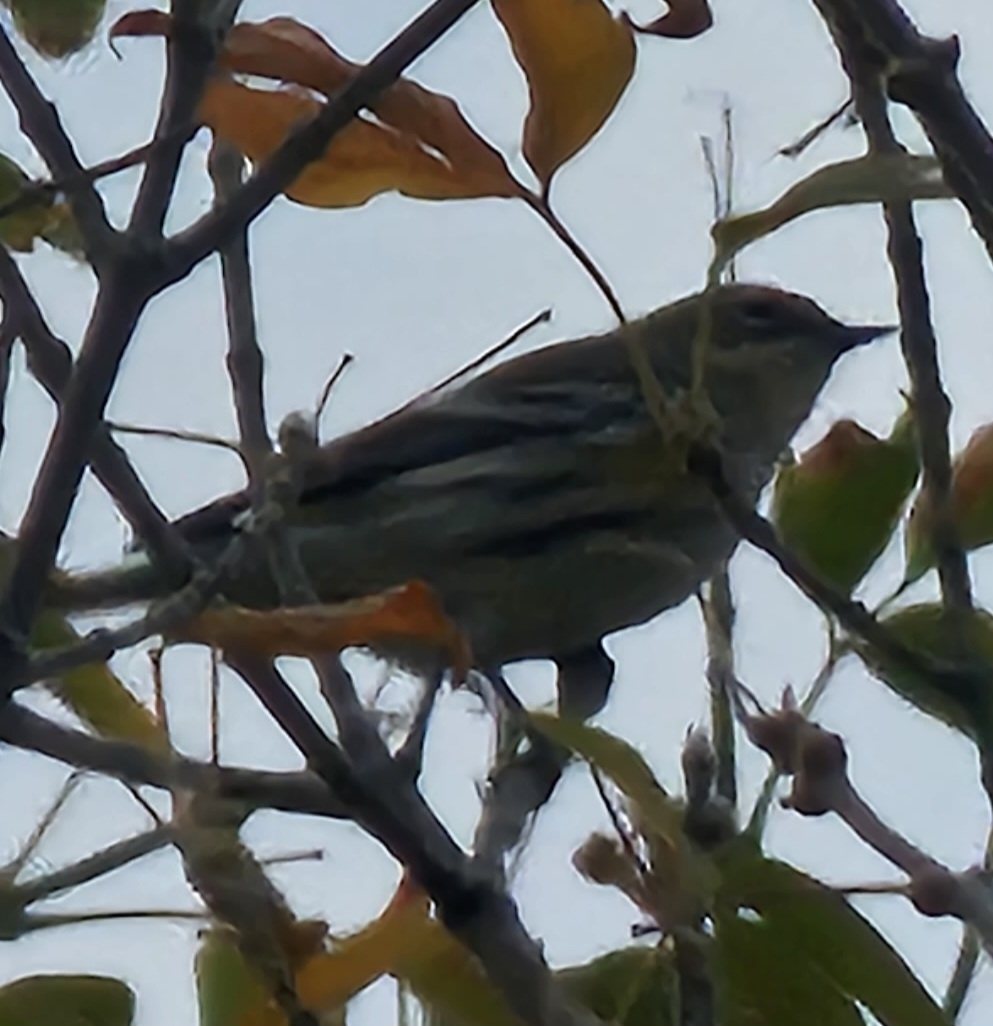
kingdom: Animalia
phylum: Chordata
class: Aves
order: Passeriformes
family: Parulidae
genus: Setophaga
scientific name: Setophaga coronata
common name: Myrtle warbler
